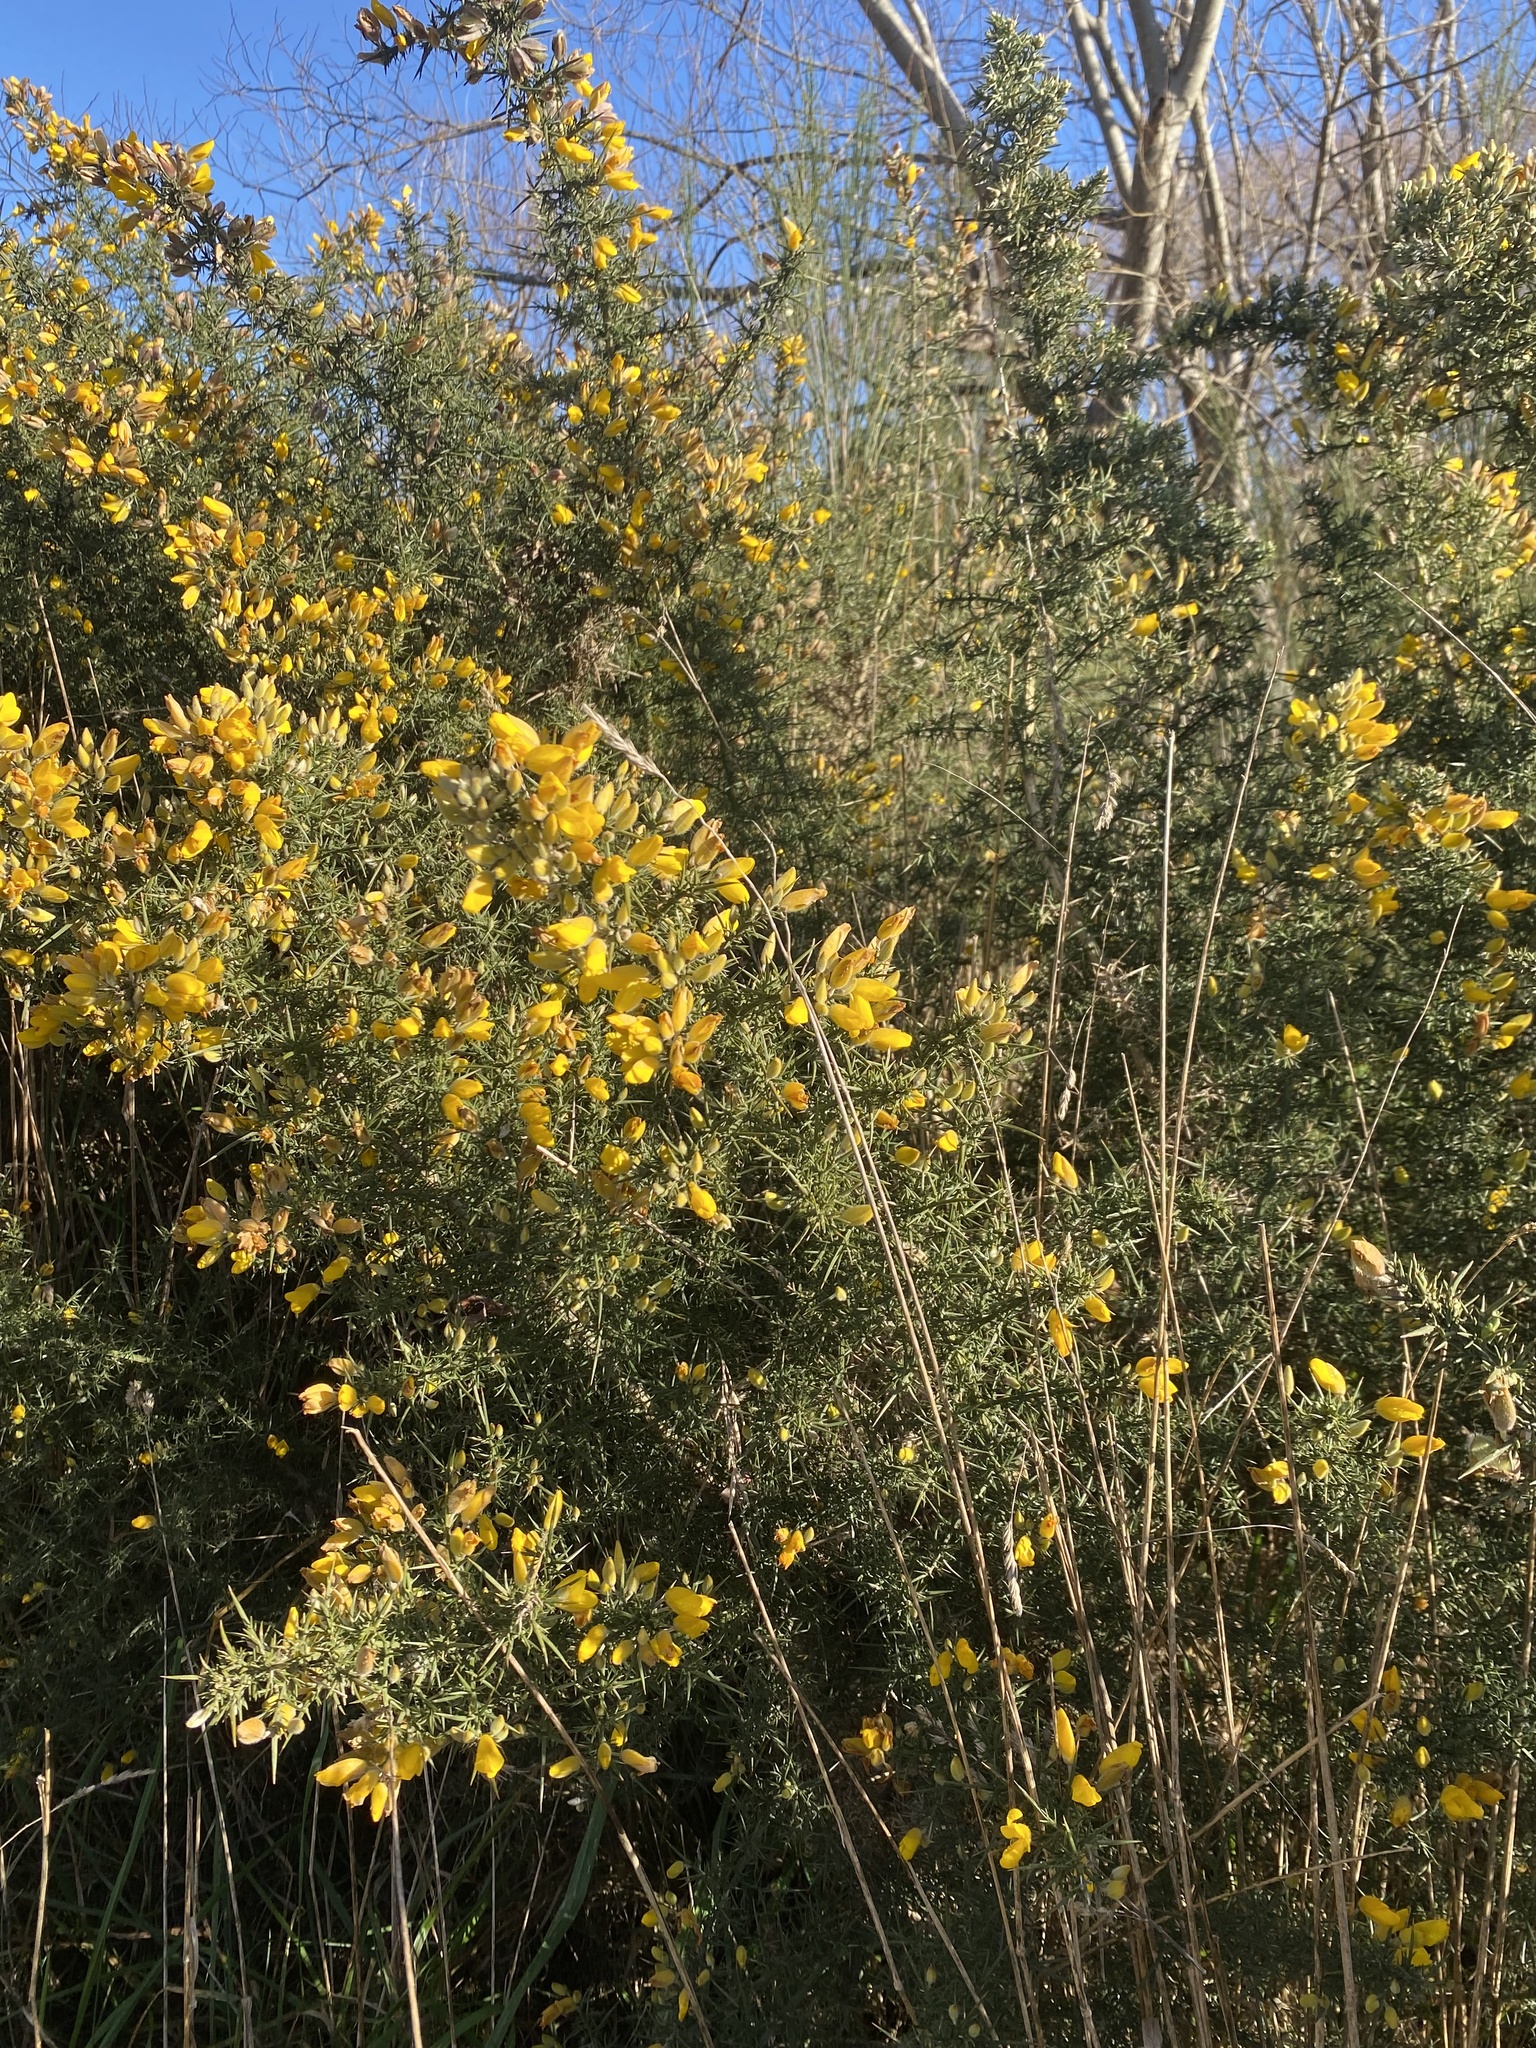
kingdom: Plantae
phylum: Tracheophyta
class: Magnoliopsida
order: Fabales
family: Fabaceae
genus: Ulex
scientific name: Ulex europaeus
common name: Common gorse
